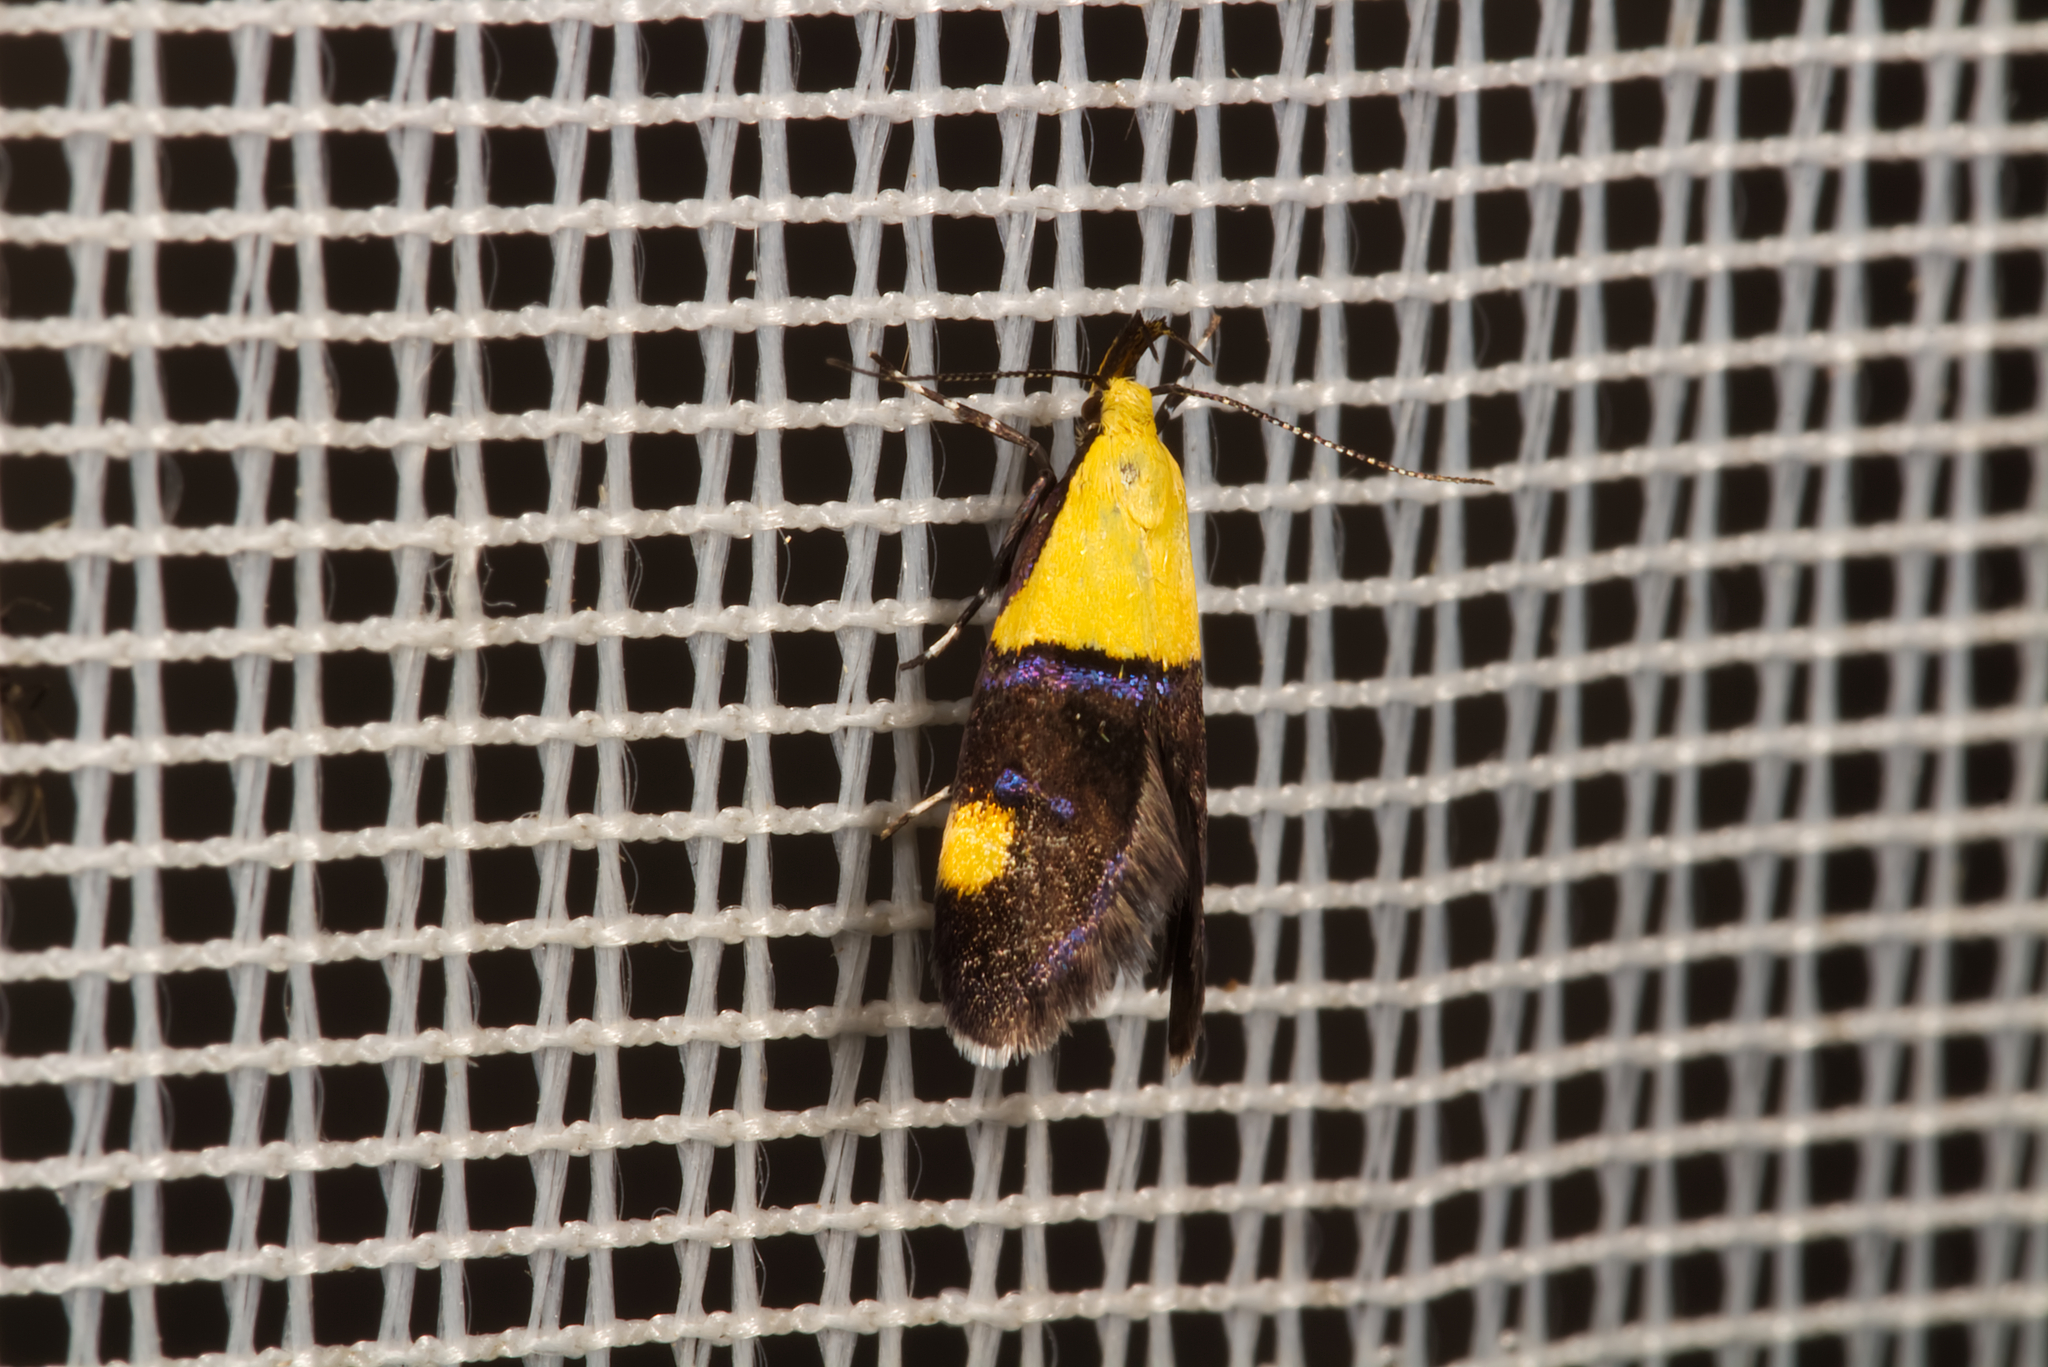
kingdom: Animalia
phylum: Arthropoda
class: Insecta
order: Lepidoptera
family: Oecophoridae
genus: Oecophora
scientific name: Oecophora bractella
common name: Gold-base tubic
